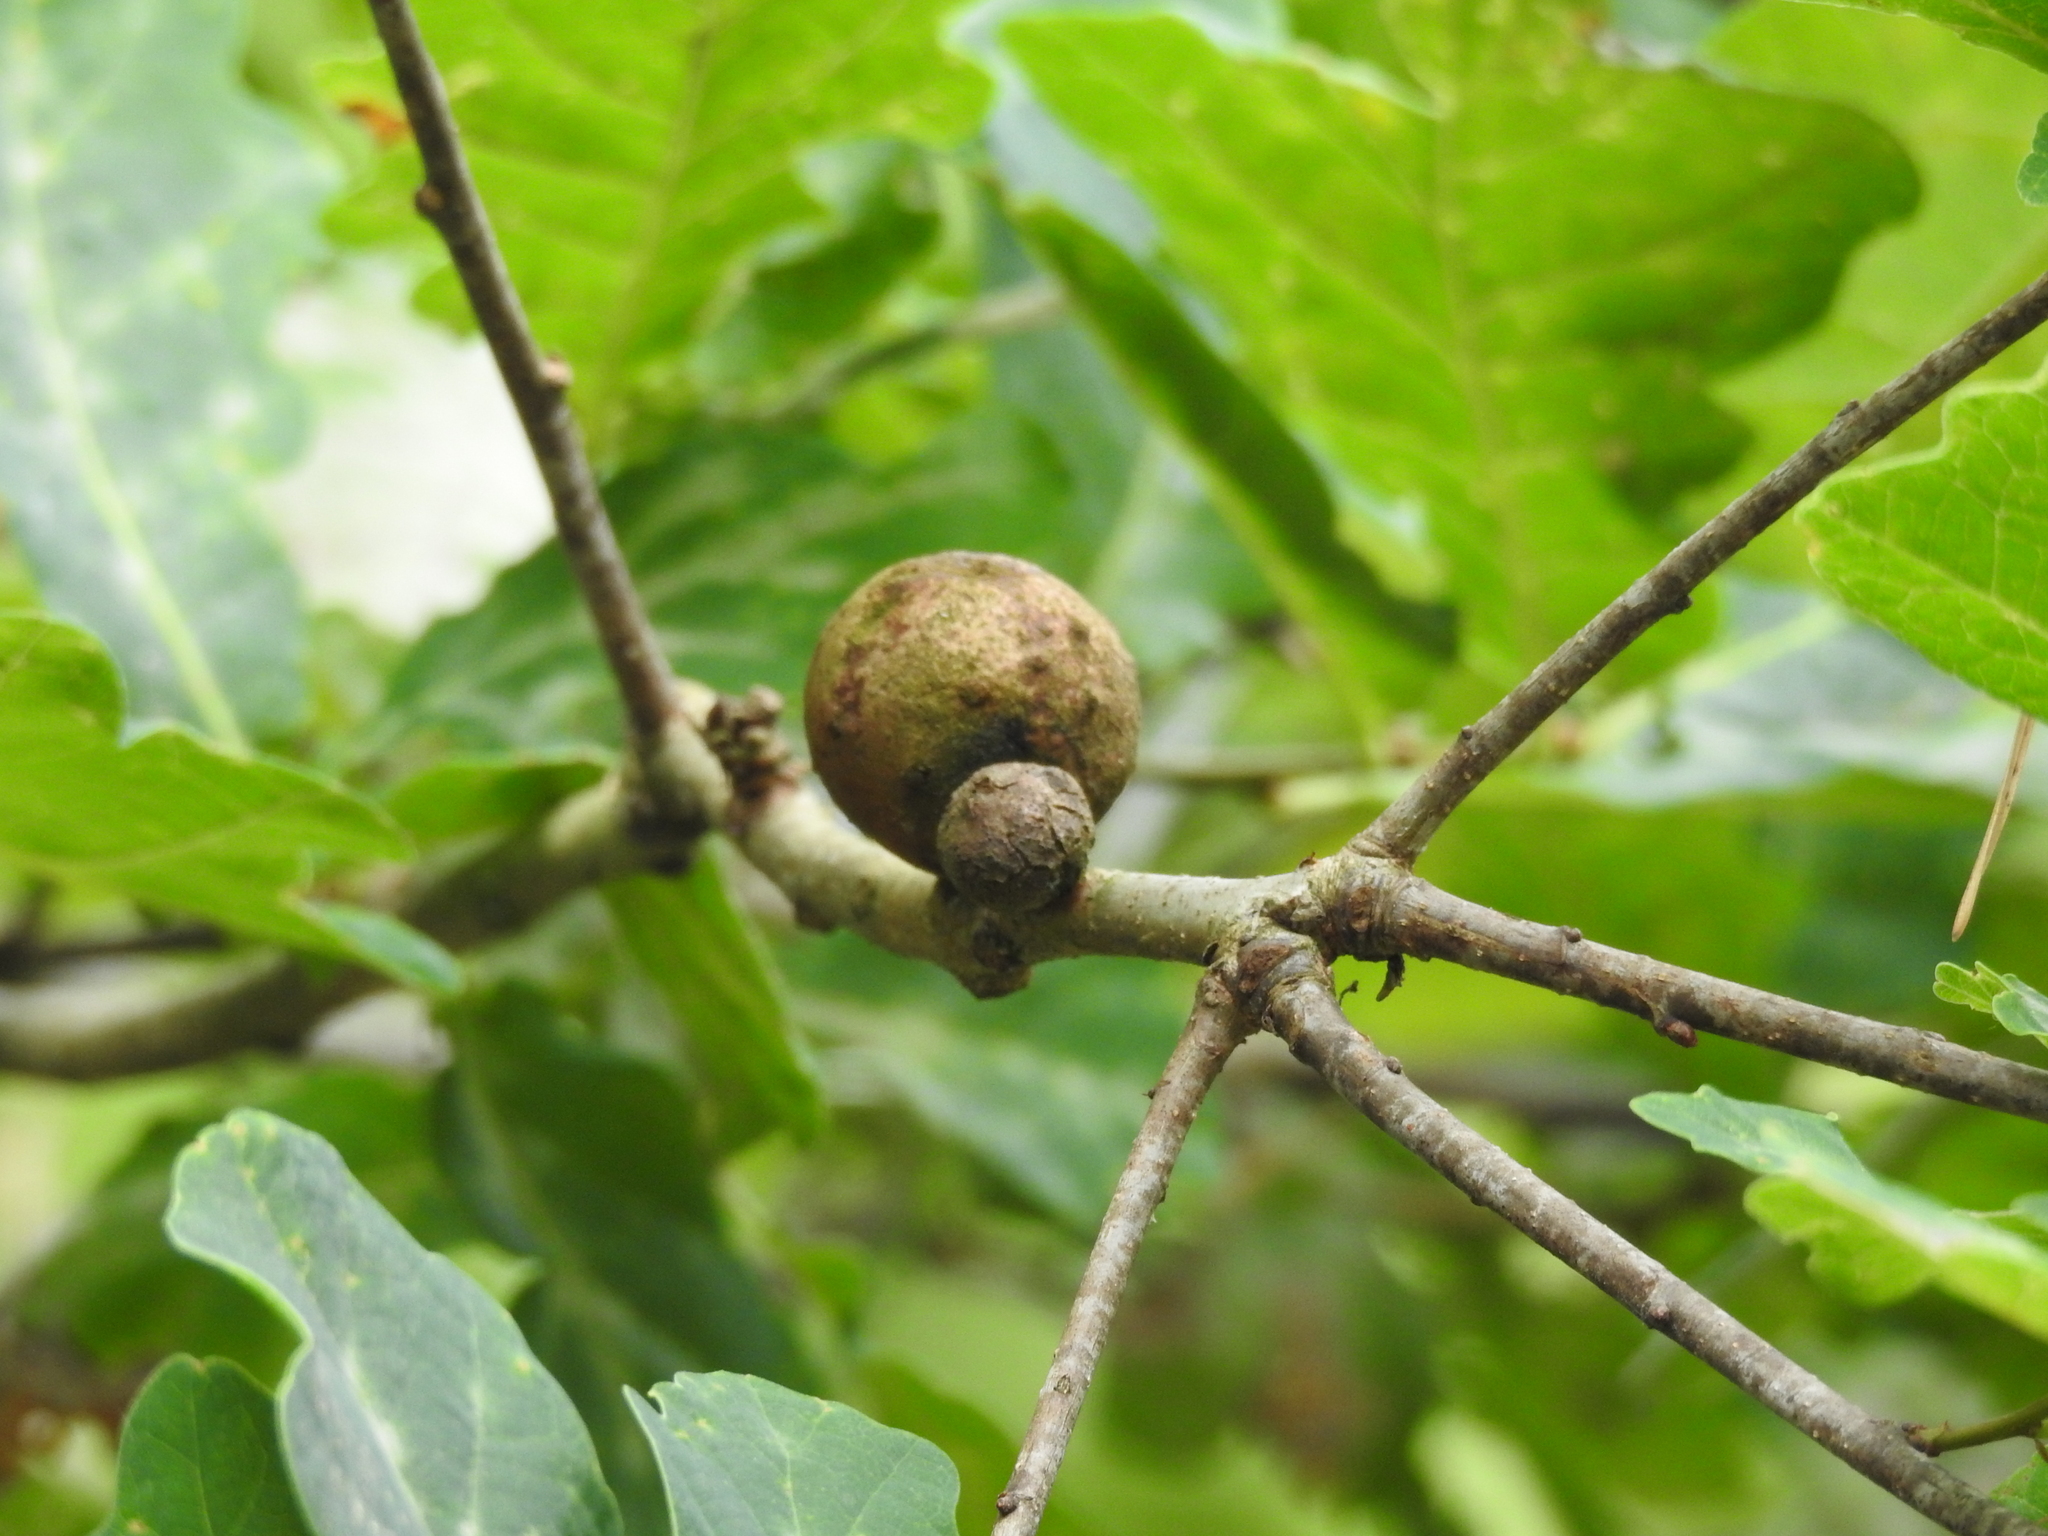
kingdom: Animalia
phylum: Arthropoda
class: Insecta
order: Hymenoptera
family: Cynipidae
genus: Andricus
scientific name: Andricus kollari
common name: Marble gall
